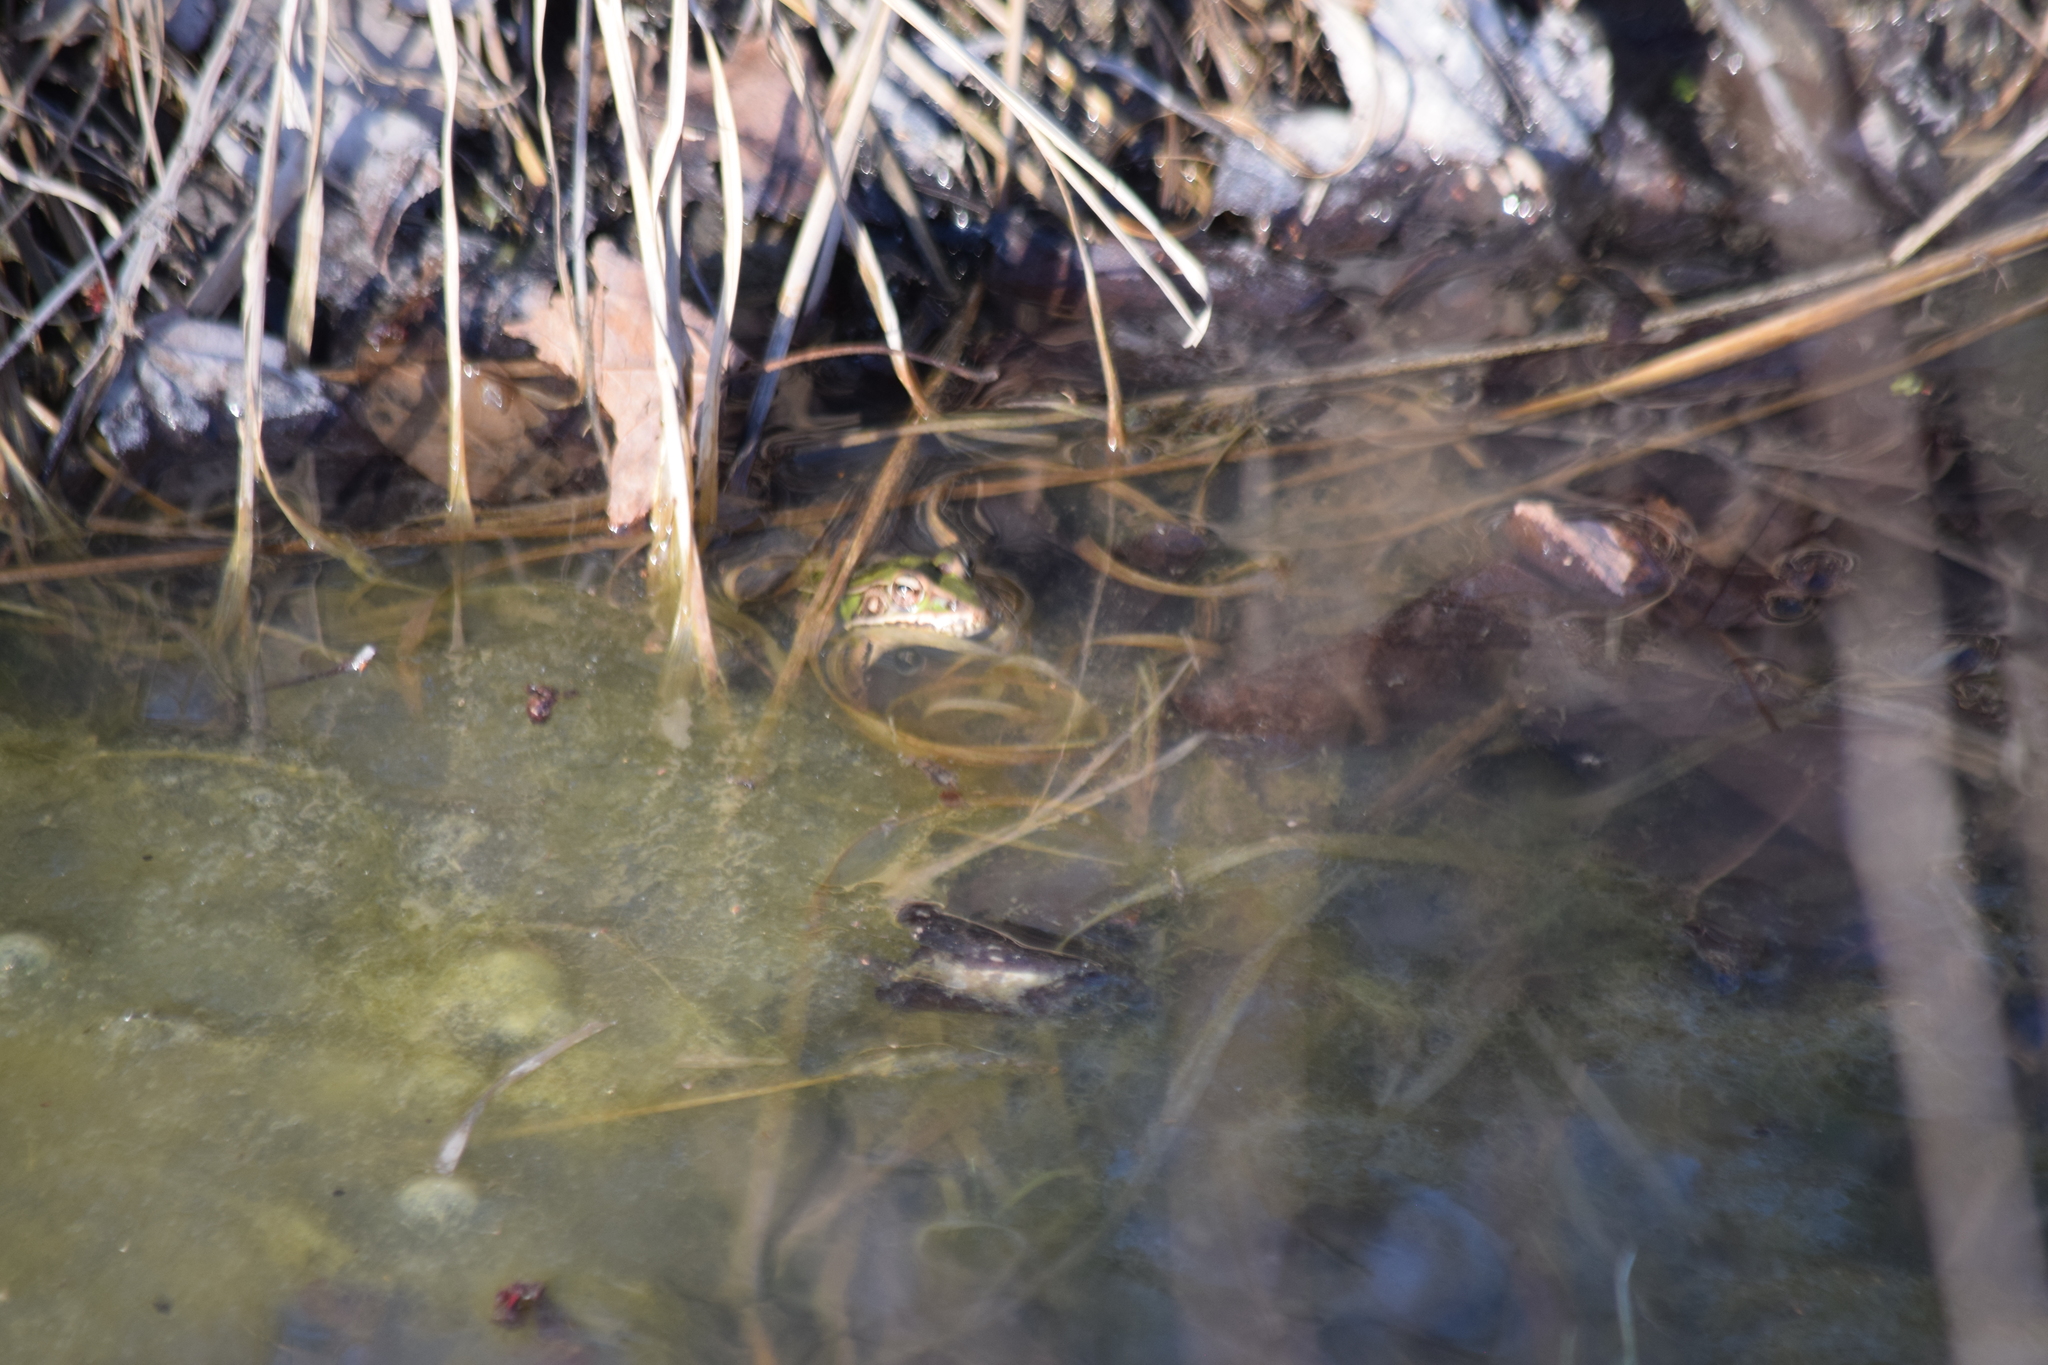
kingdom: Animalia
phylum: Chordata
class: Amphibia
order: Anura
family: Ranidae
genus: Lithobates
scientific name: Lithobates sphenocephalus
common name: Southern leopard frog
